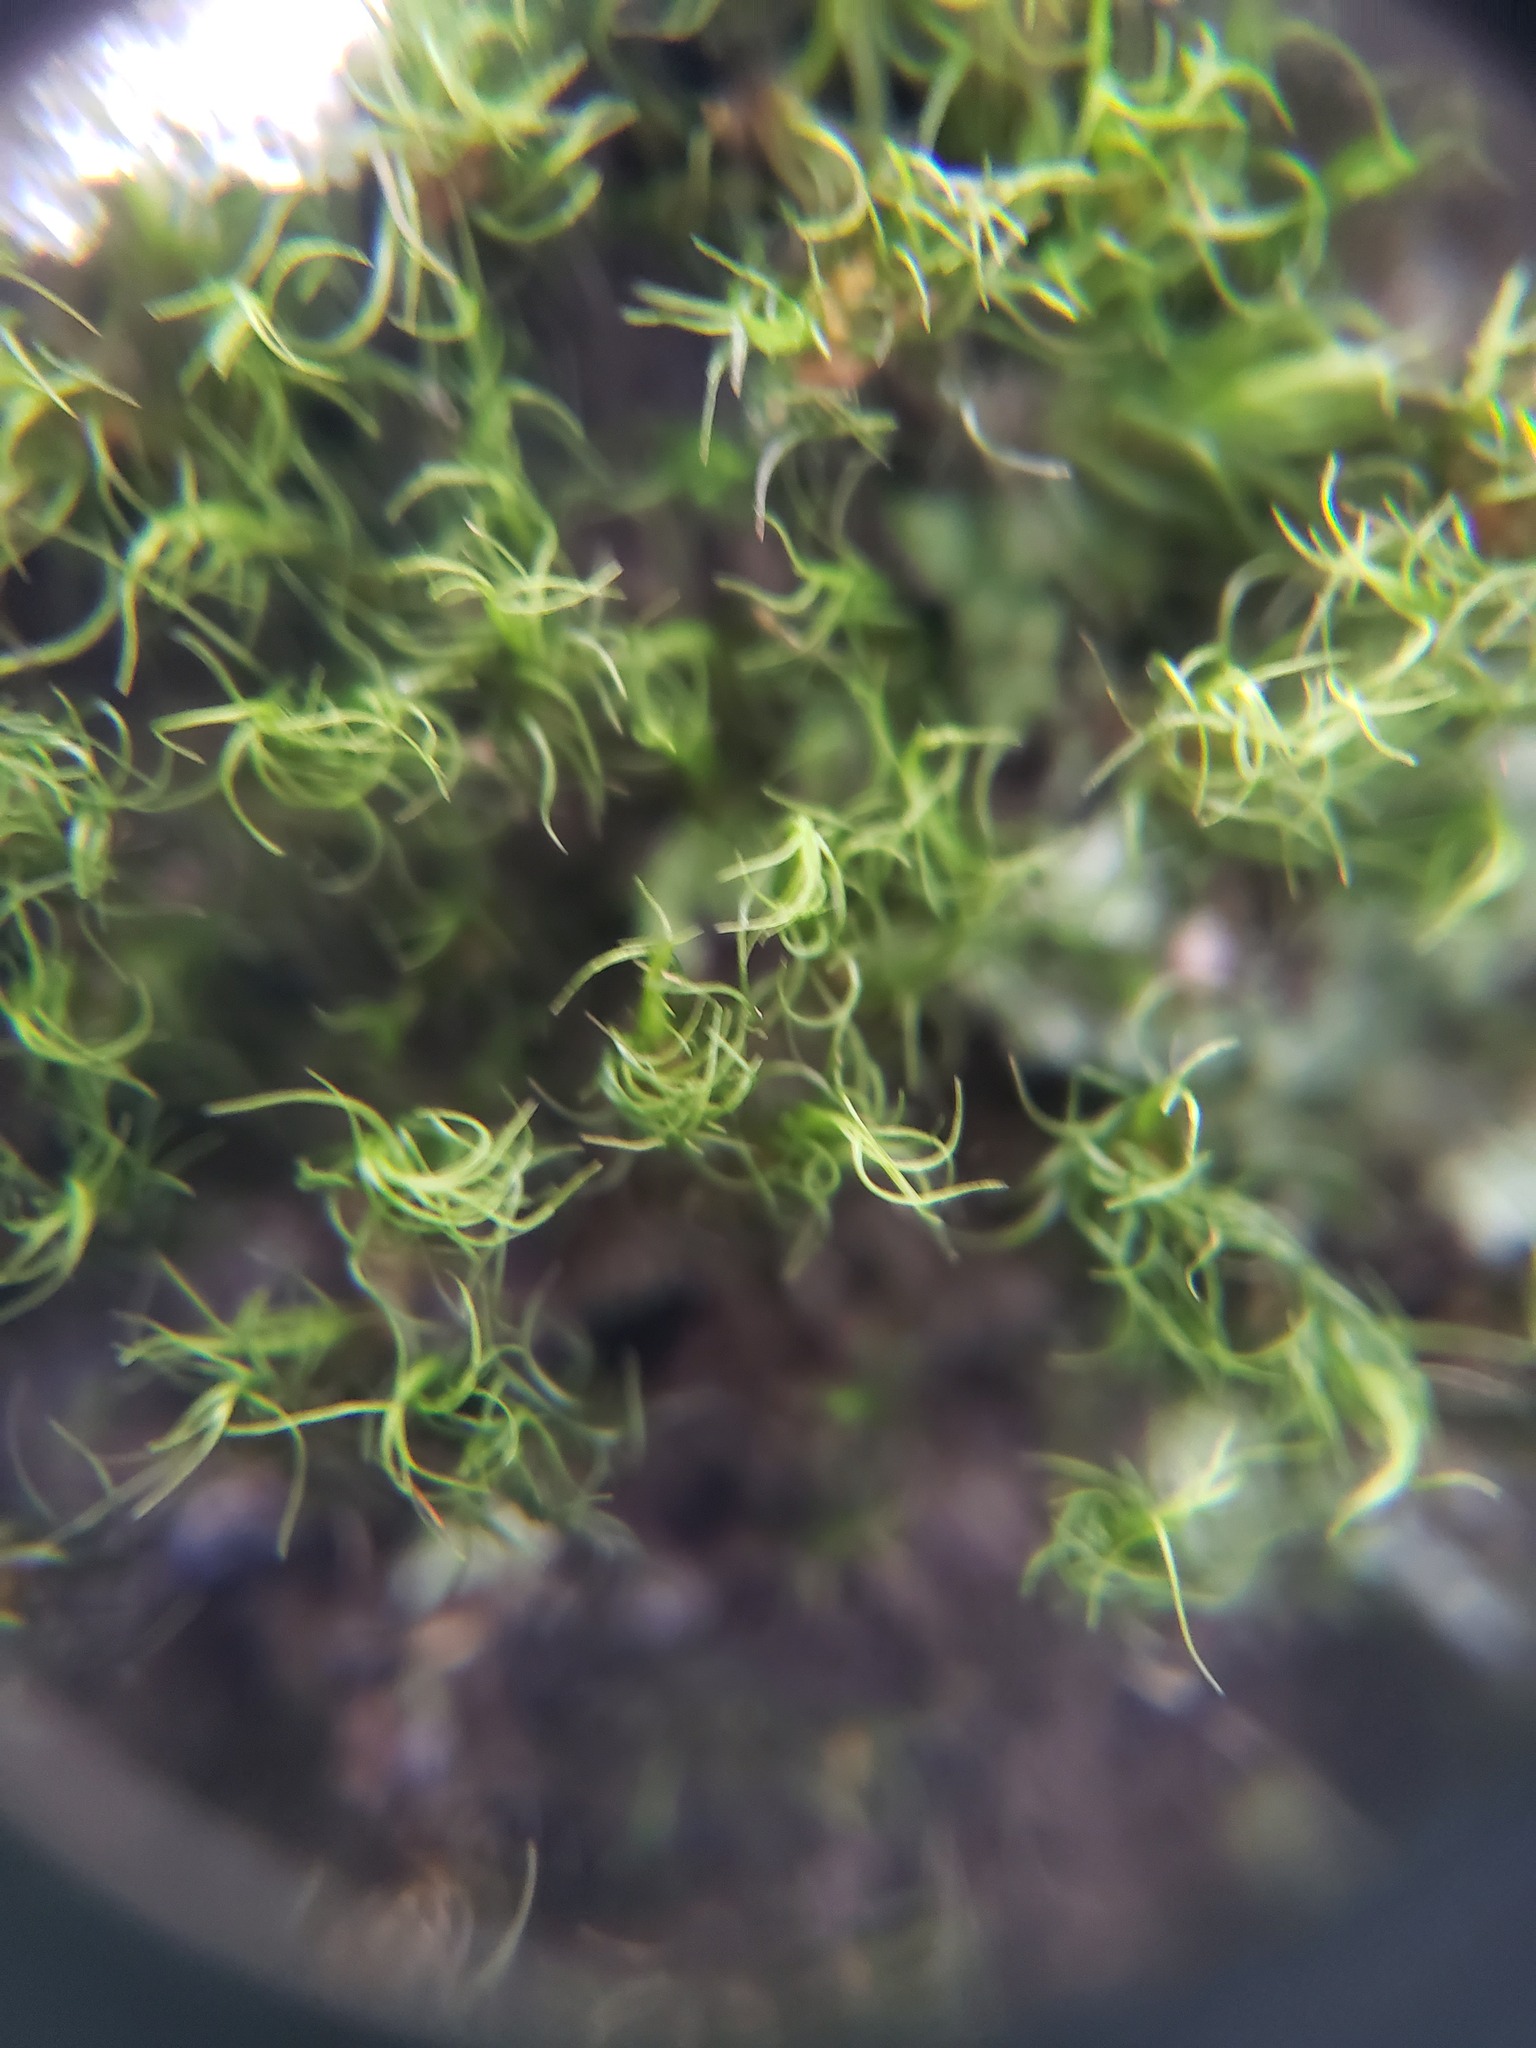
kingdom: Plantae
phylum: Bryophyta
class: Bryopsida
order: Dicranales
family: Dicranaceae
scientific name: Dicranaceae
